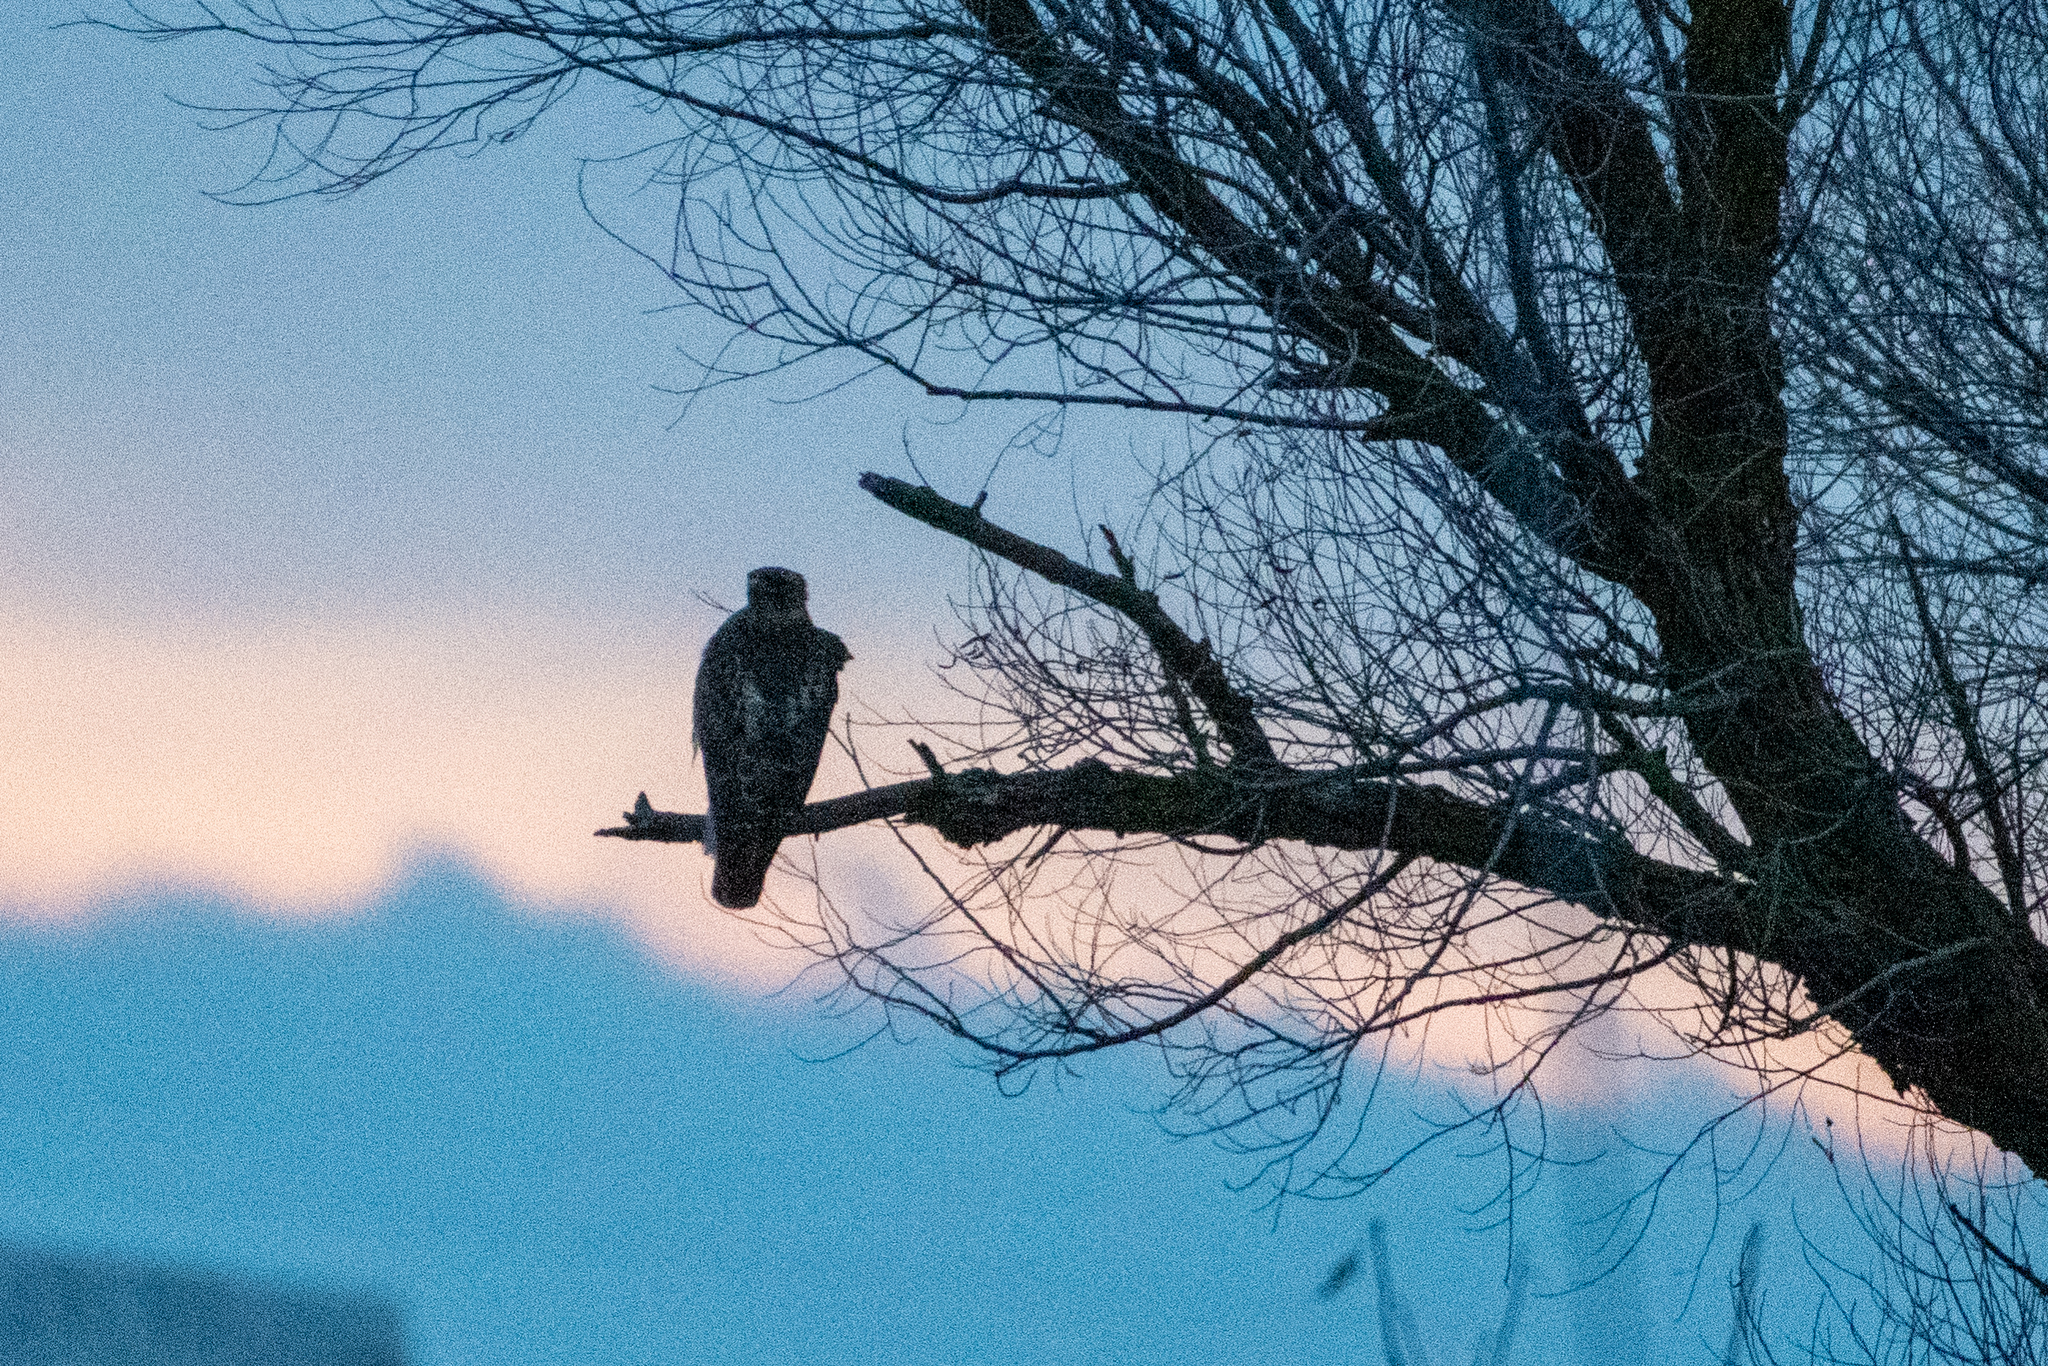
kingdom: Animalia
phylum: Chordata
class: Aves
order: Accipitriformes
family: Accipitridae
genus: Buteo
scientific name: Buteo jamaicensis
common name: Red-tailed hawk
